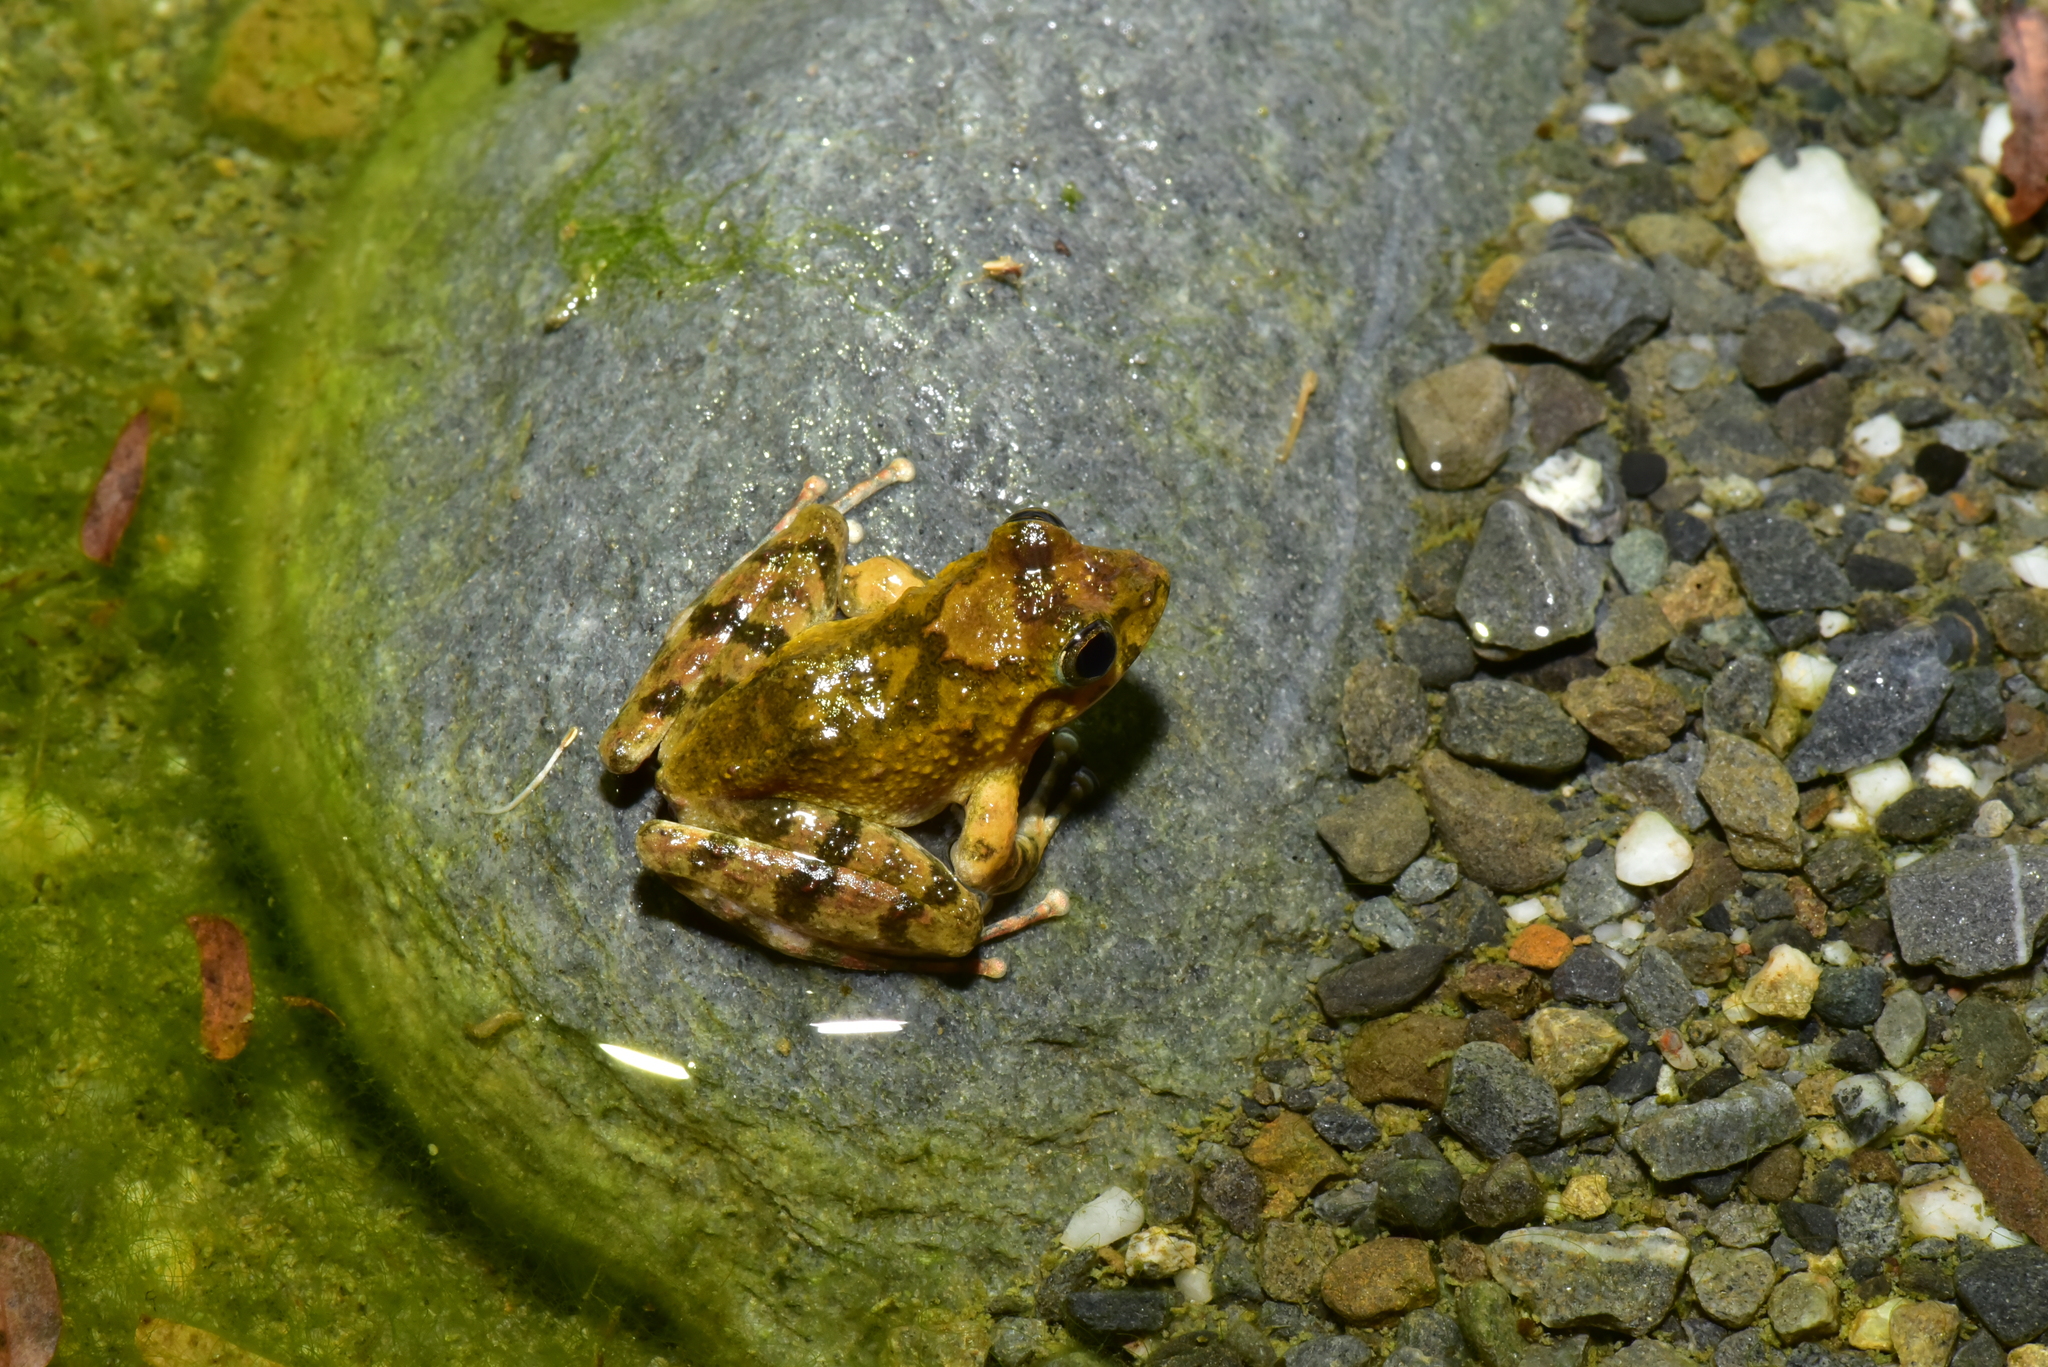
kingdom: Animalia
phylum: Chordata
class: Amphibia
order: Anura
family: Rhacophoridae
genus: Buergeria
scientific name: Buergeria otai
